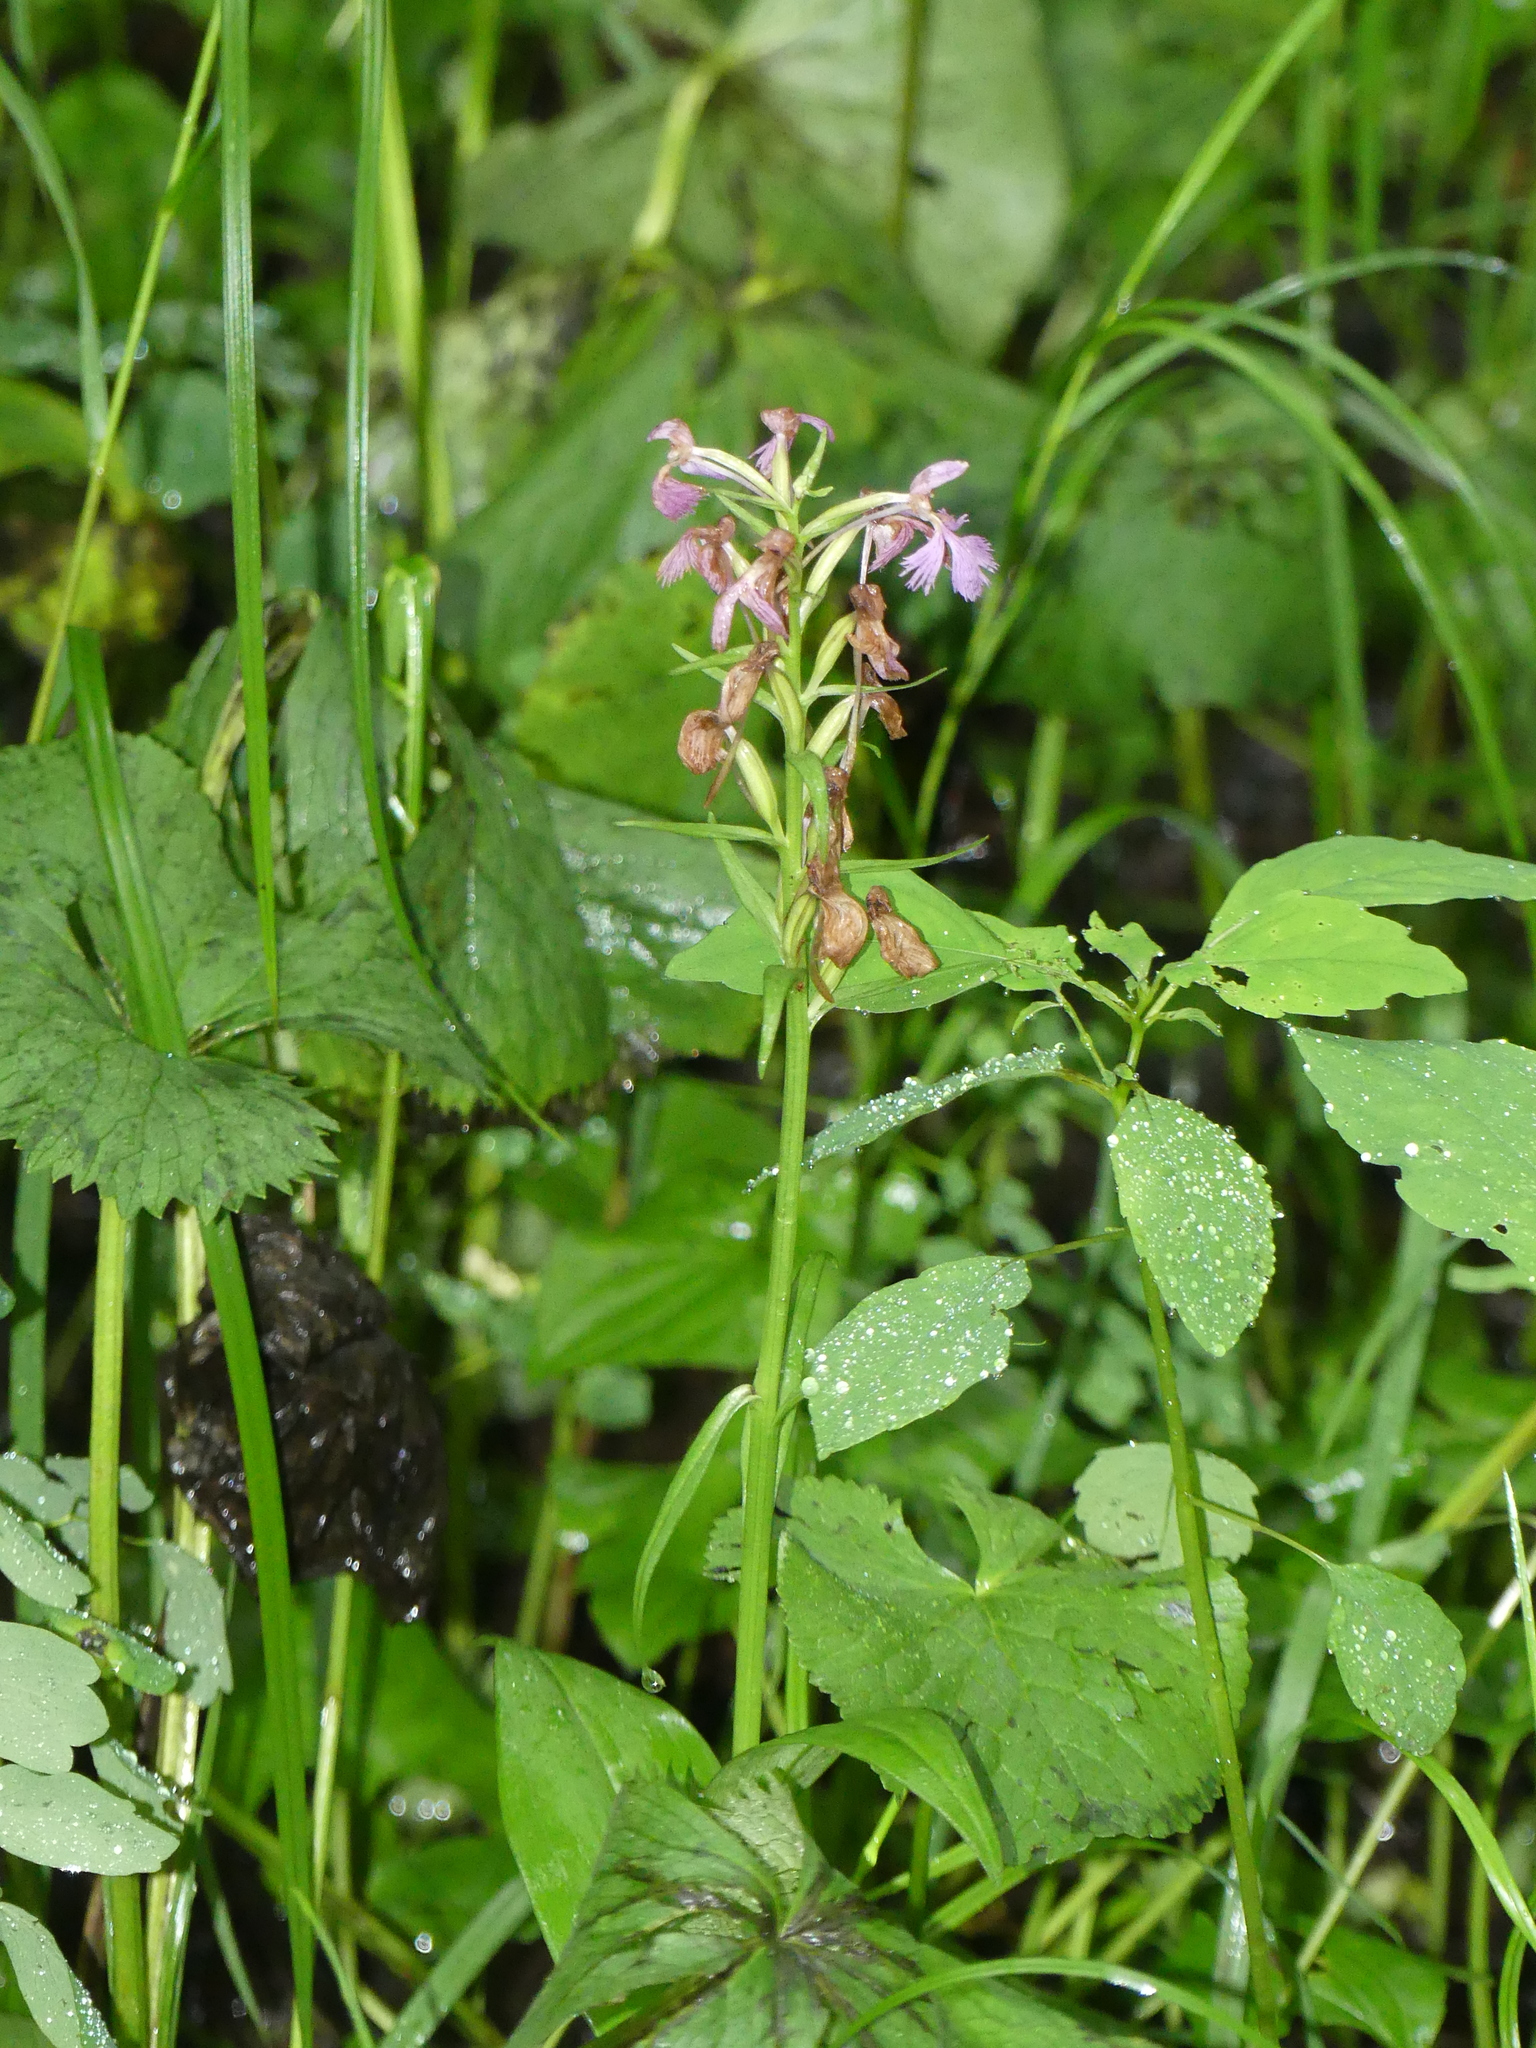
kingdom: Plantae
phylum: Tracheophyta
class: Liliopsida
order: Asparagales
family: Orchidaceae
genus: Platanthera
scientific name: Platanthera grandiflora
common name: Greater purple fringed orchid
